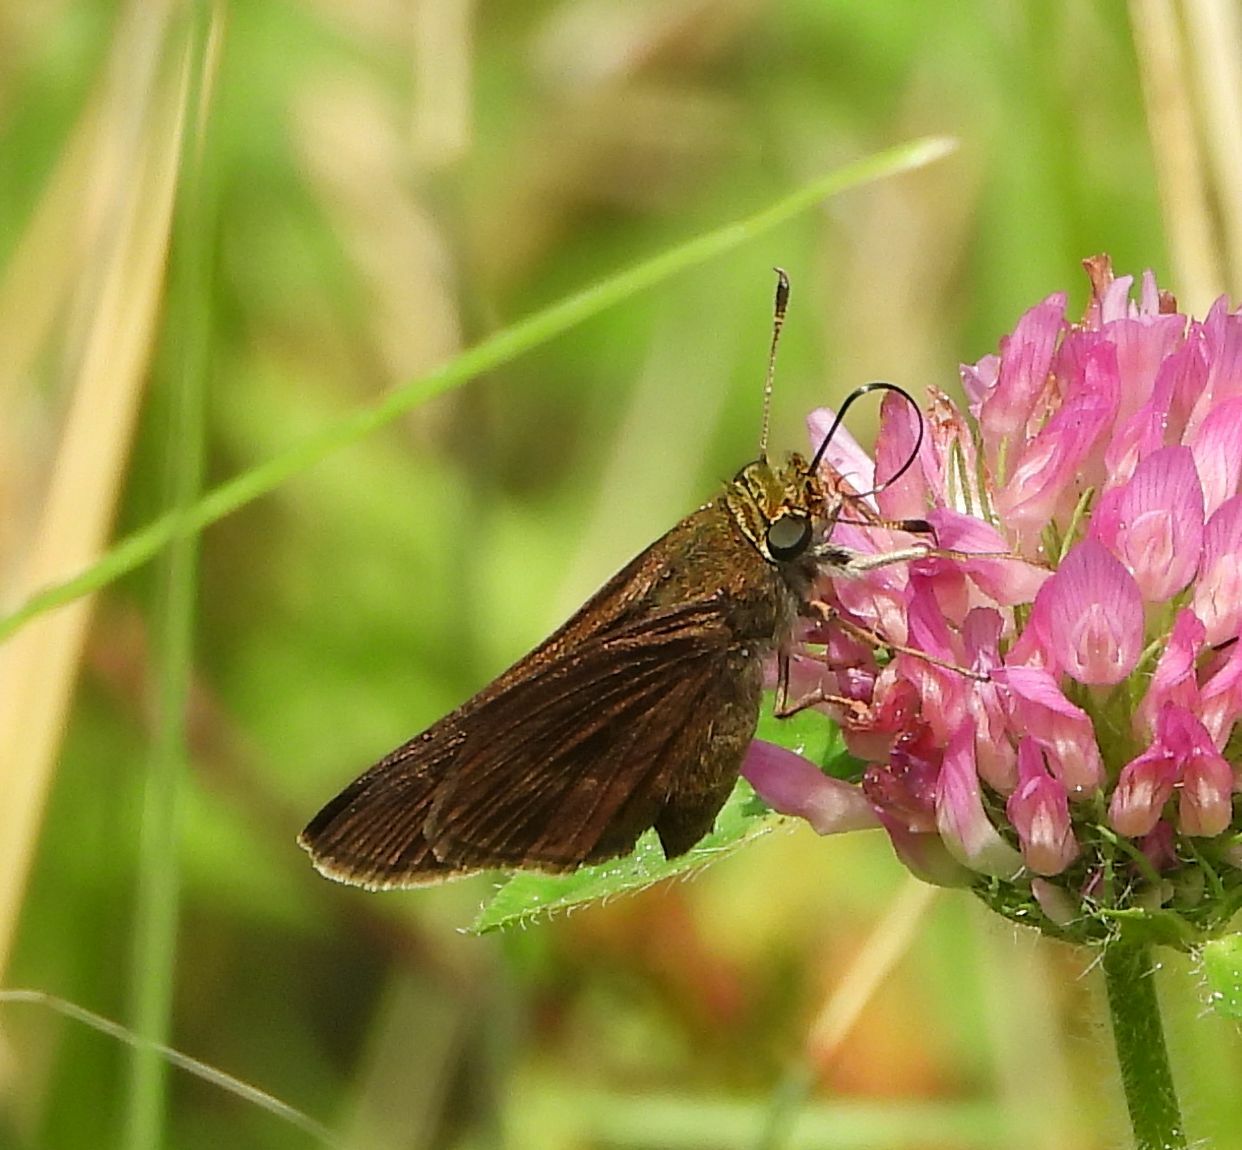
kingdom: Animalia
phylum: Arthropoda
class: Insecta
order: Lepidoptera
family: Hesperiidae
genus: Euphyes
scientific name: Euphyes vestris
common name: Dun skipper
